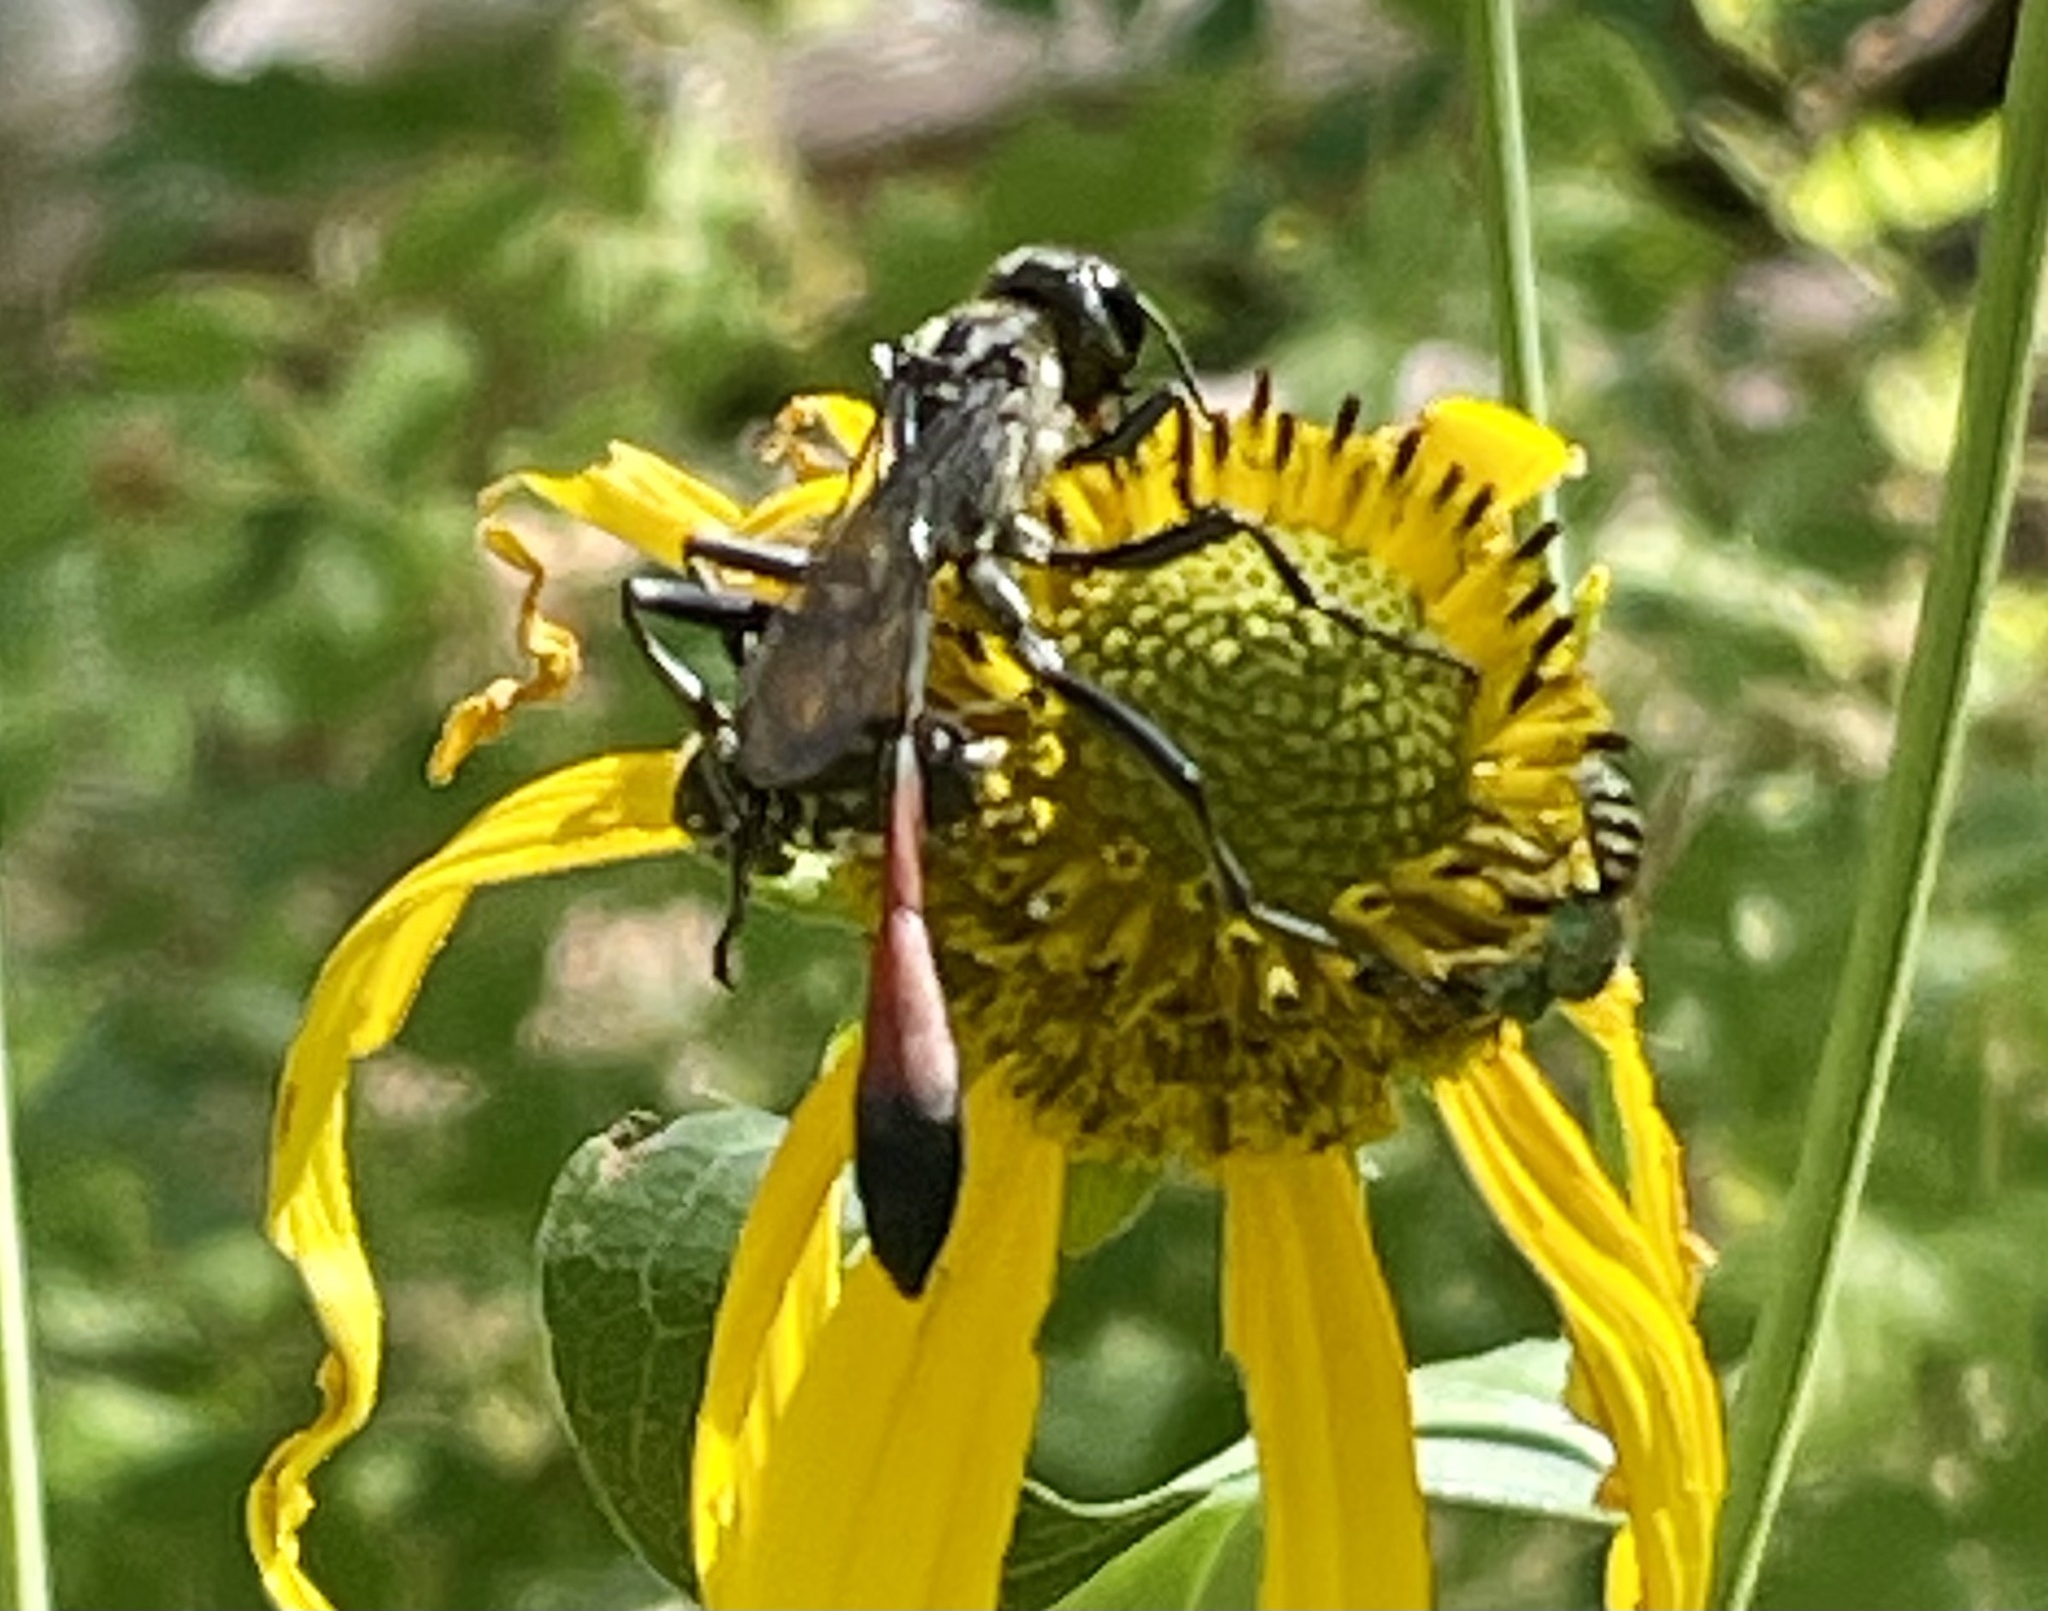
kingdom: Animalia
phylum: Arthropoda
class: Insecta
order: Hymenoptera
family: Sphecidae
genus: Ammophila
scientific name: Ammophila procera
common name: Common thread-waisted wasp
